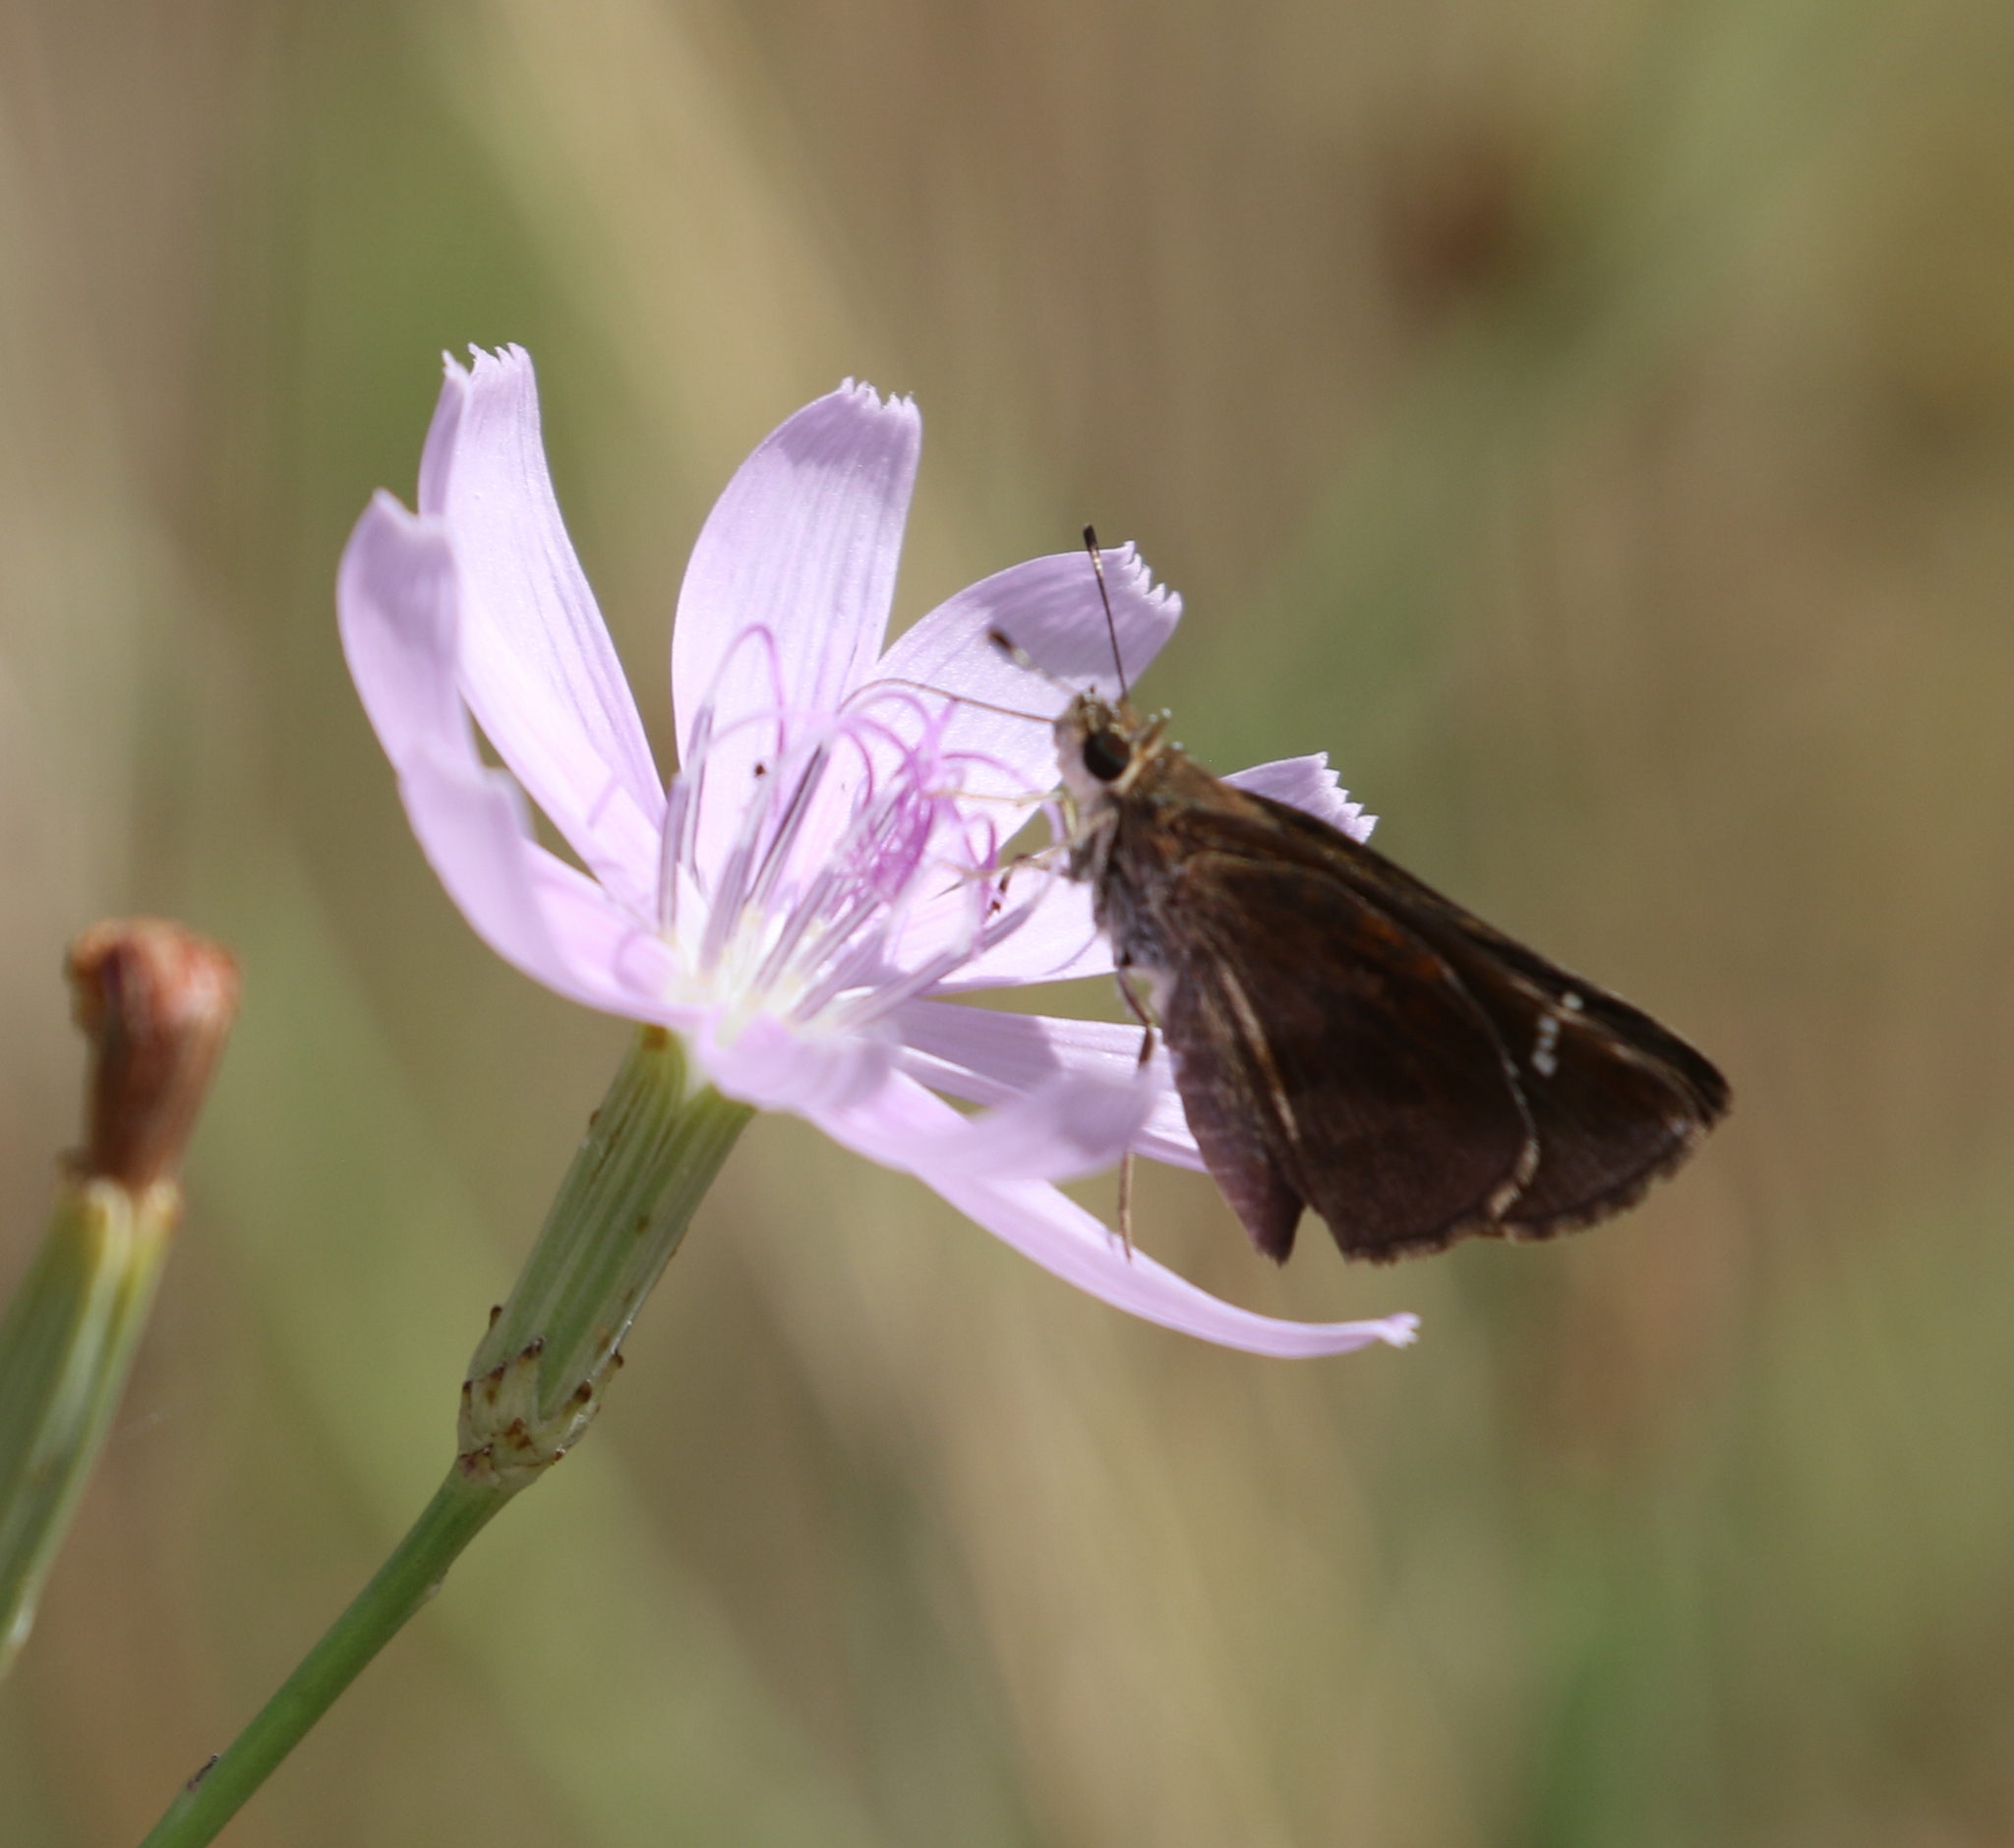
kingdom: Animalia
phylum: Arthropoda
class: Insecta
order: Lepidoptera
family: Hesperiidae
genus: Lerema
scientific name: Lerema accius
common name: Clouded skipper
